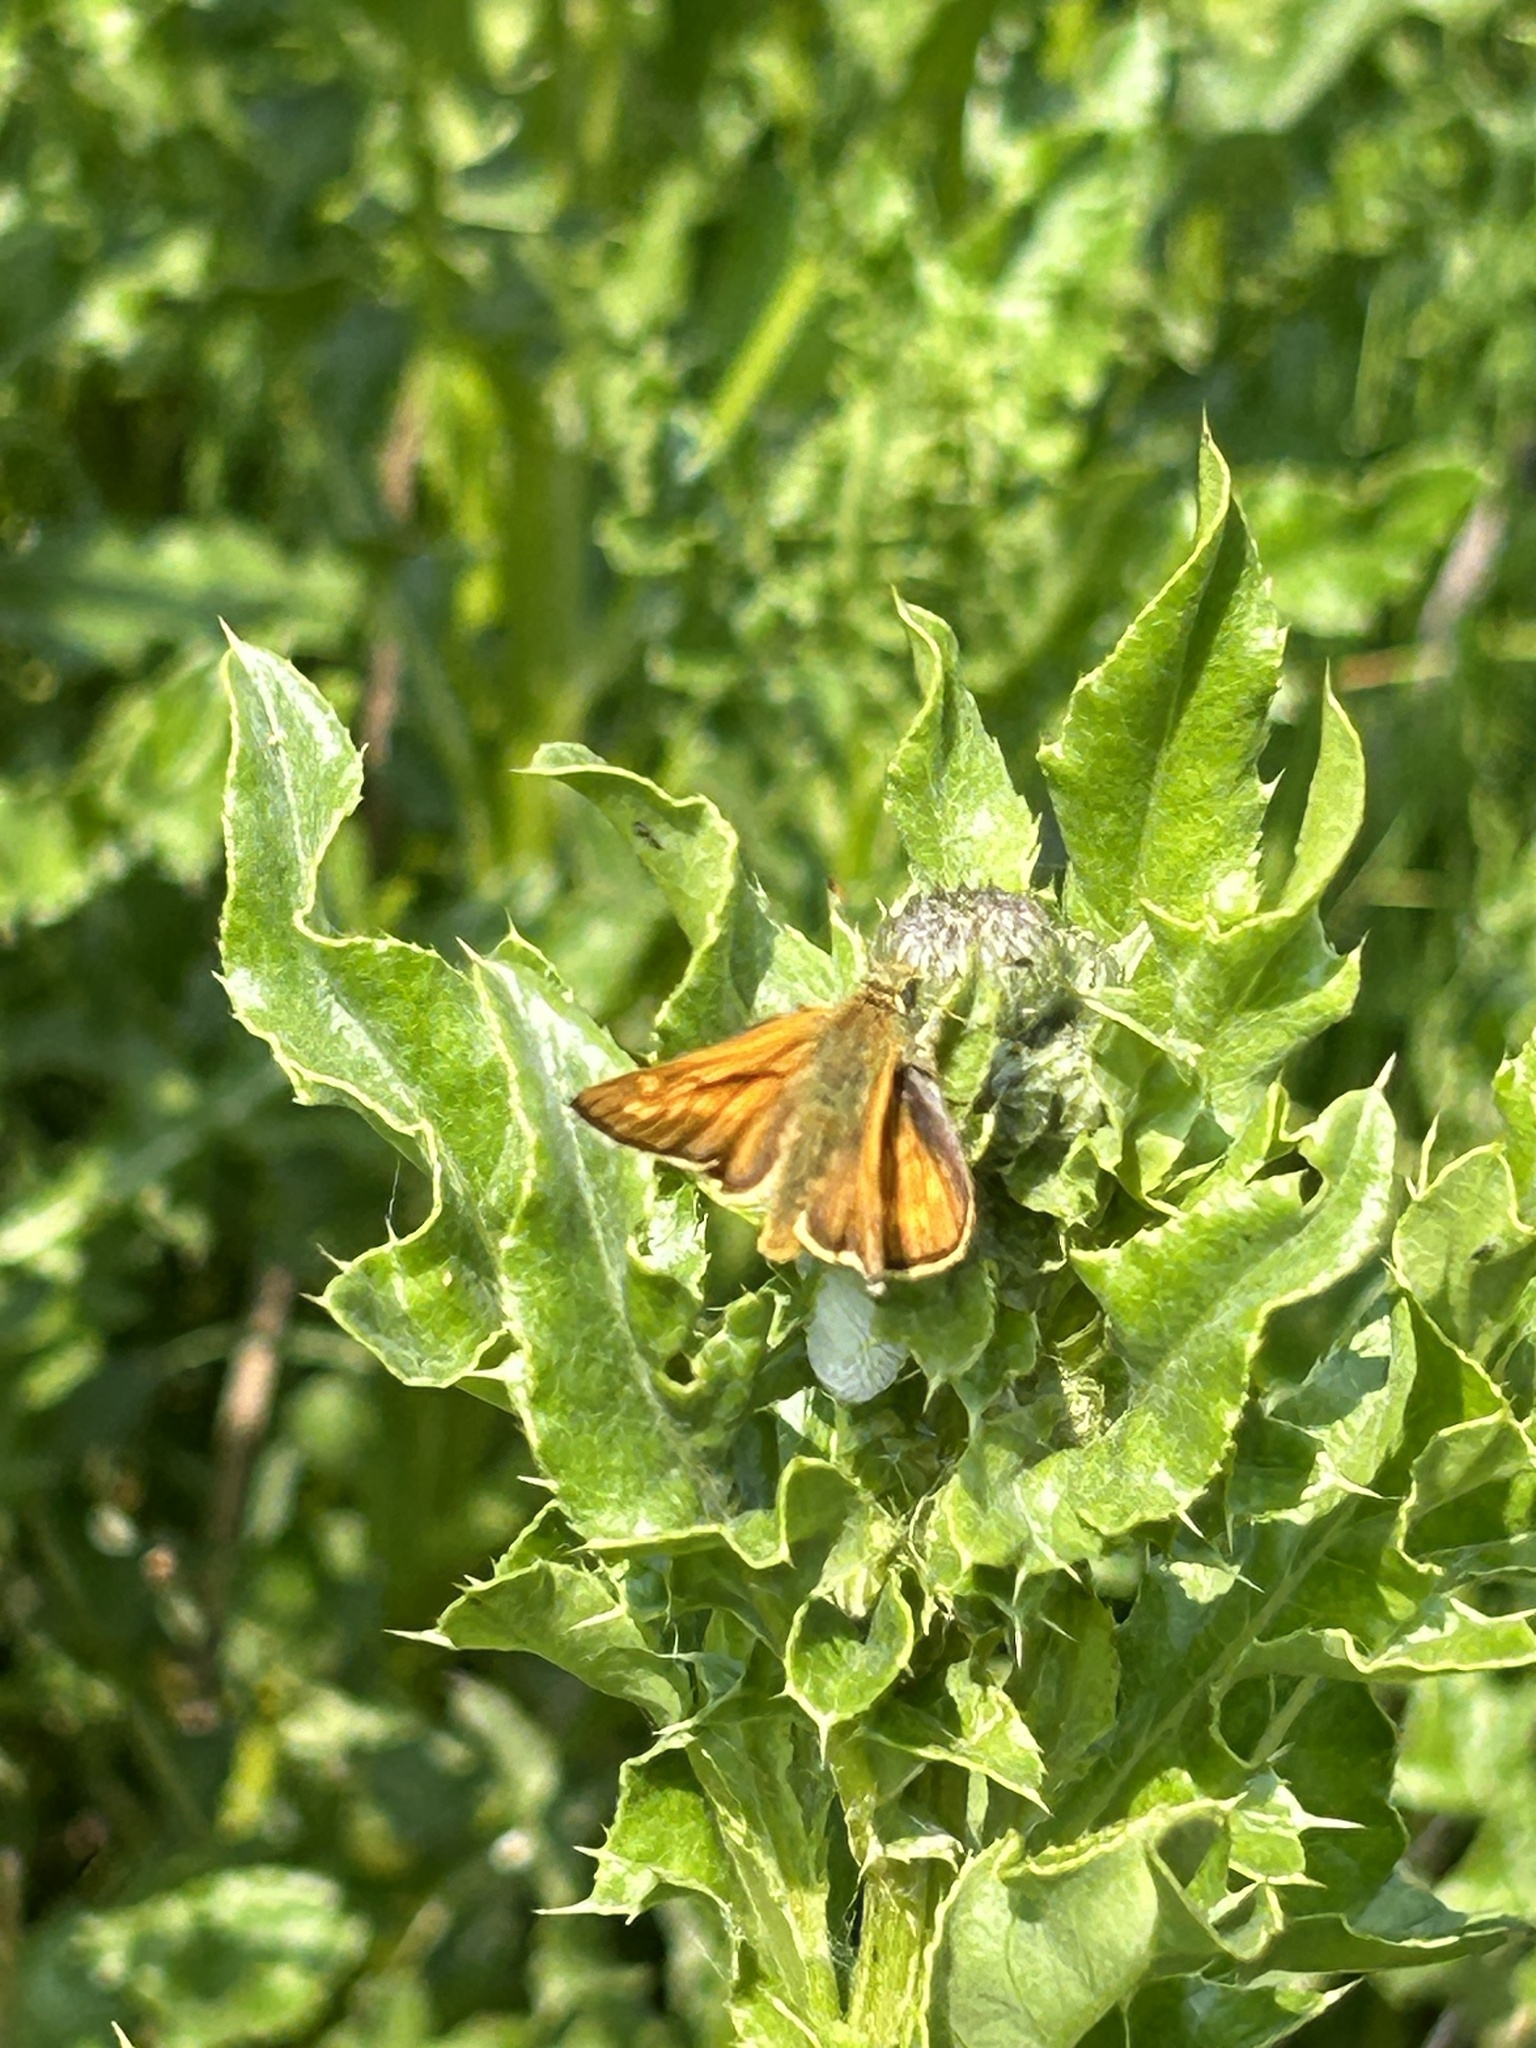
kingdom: Animalia
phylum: Arthropoda
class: Insecta
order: Lepidoptera
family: Hesperiidae
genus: Ochlodes
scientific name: Ochlodes venata
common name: Large skipper
